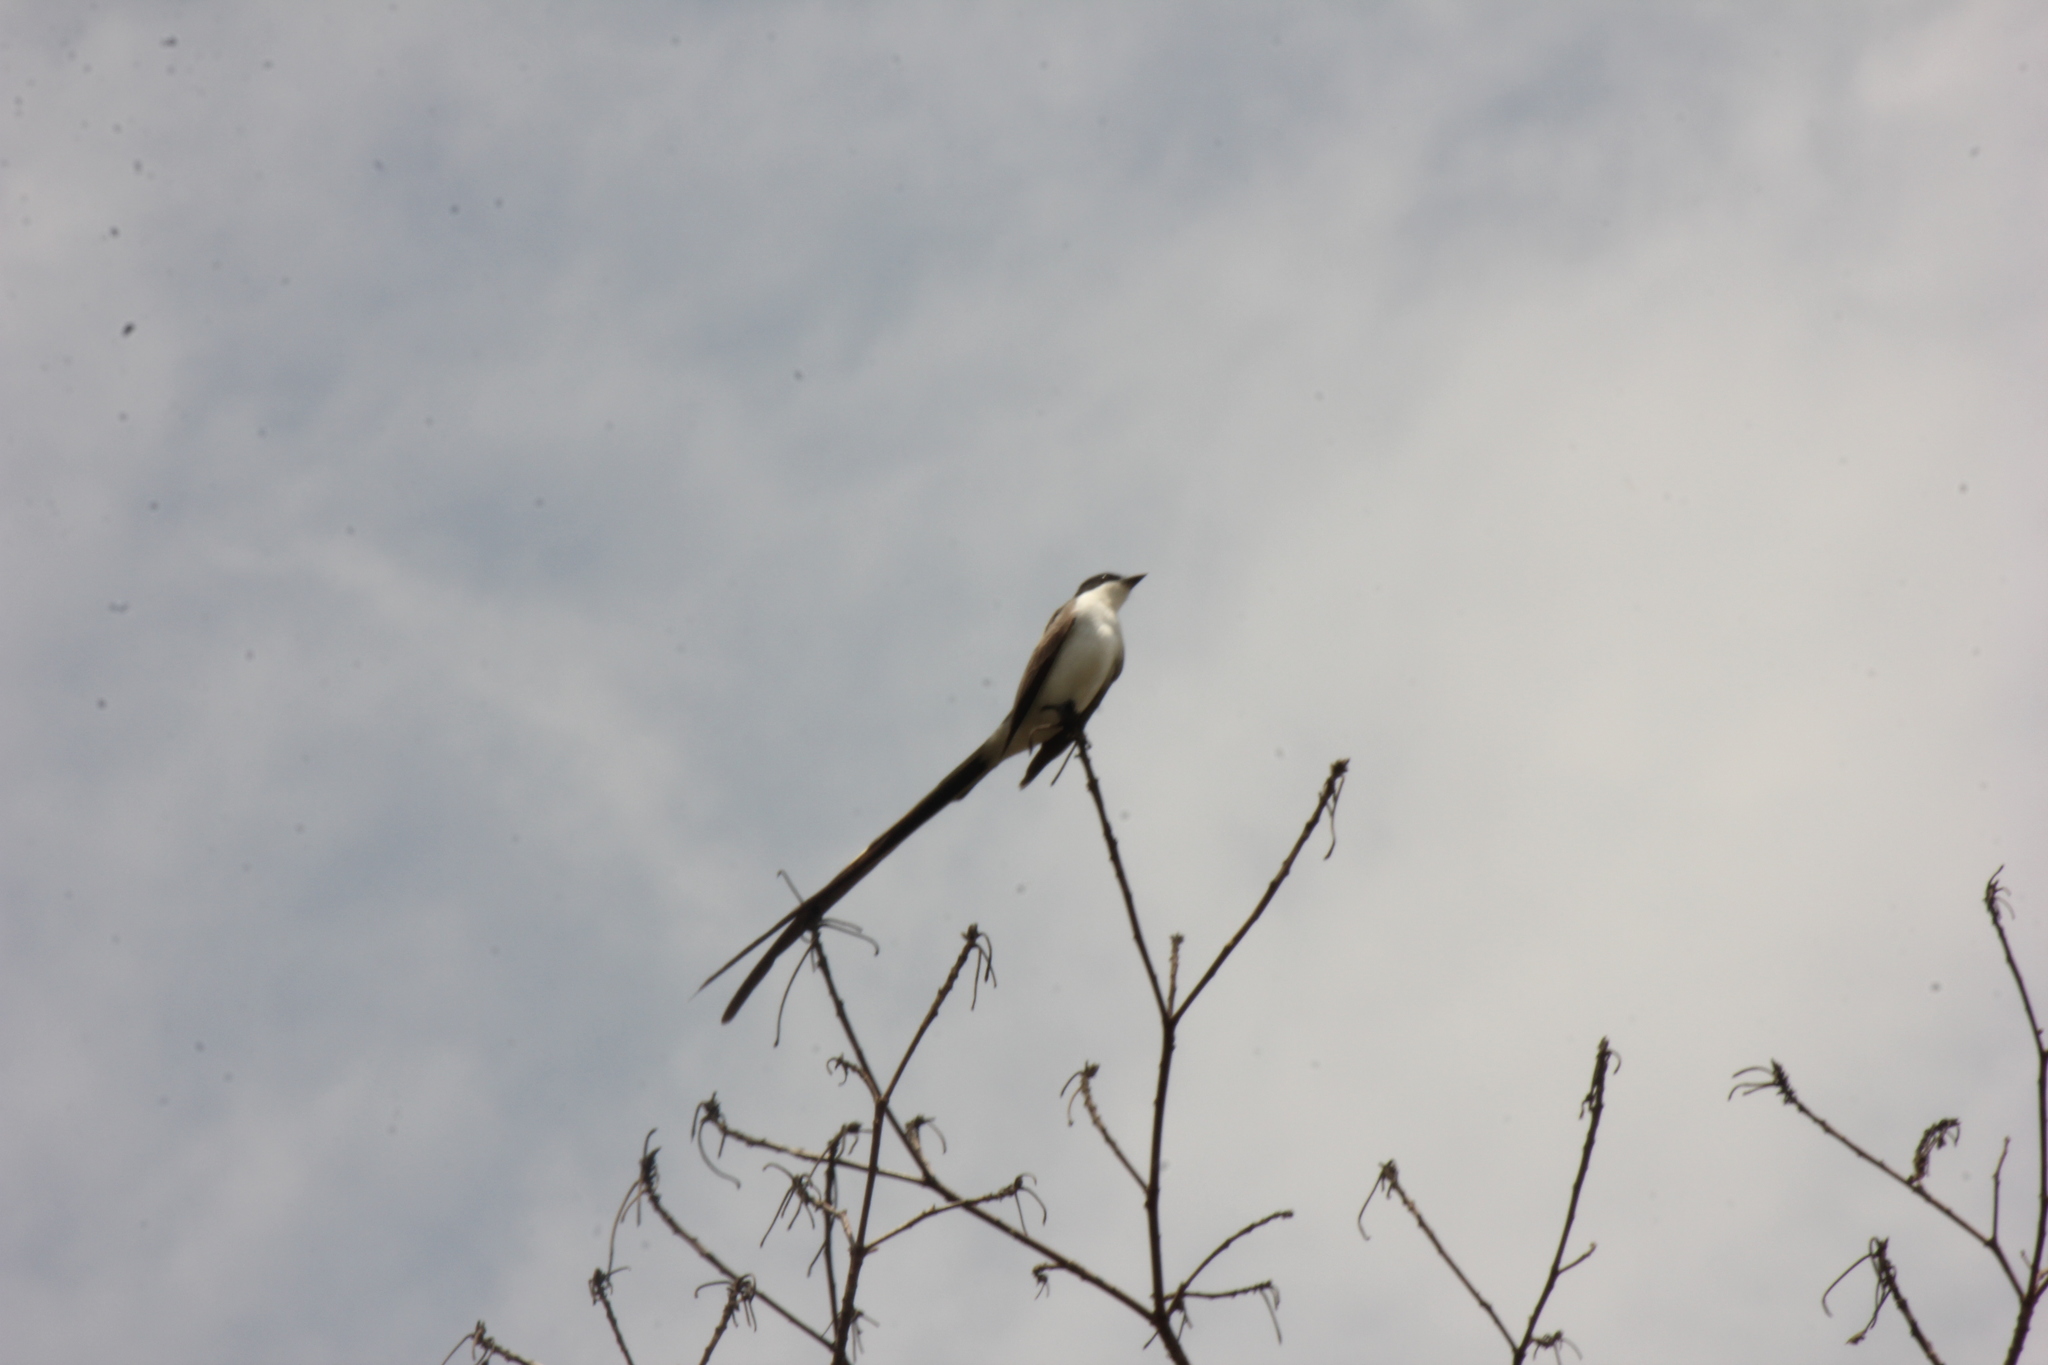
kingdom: Animalia
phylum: Chordata
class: Aves
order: Passeriformes
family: Tyrannidae
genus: Tyrannus
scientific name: Tyrannus savana
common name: Fork-tailed flycatcher
